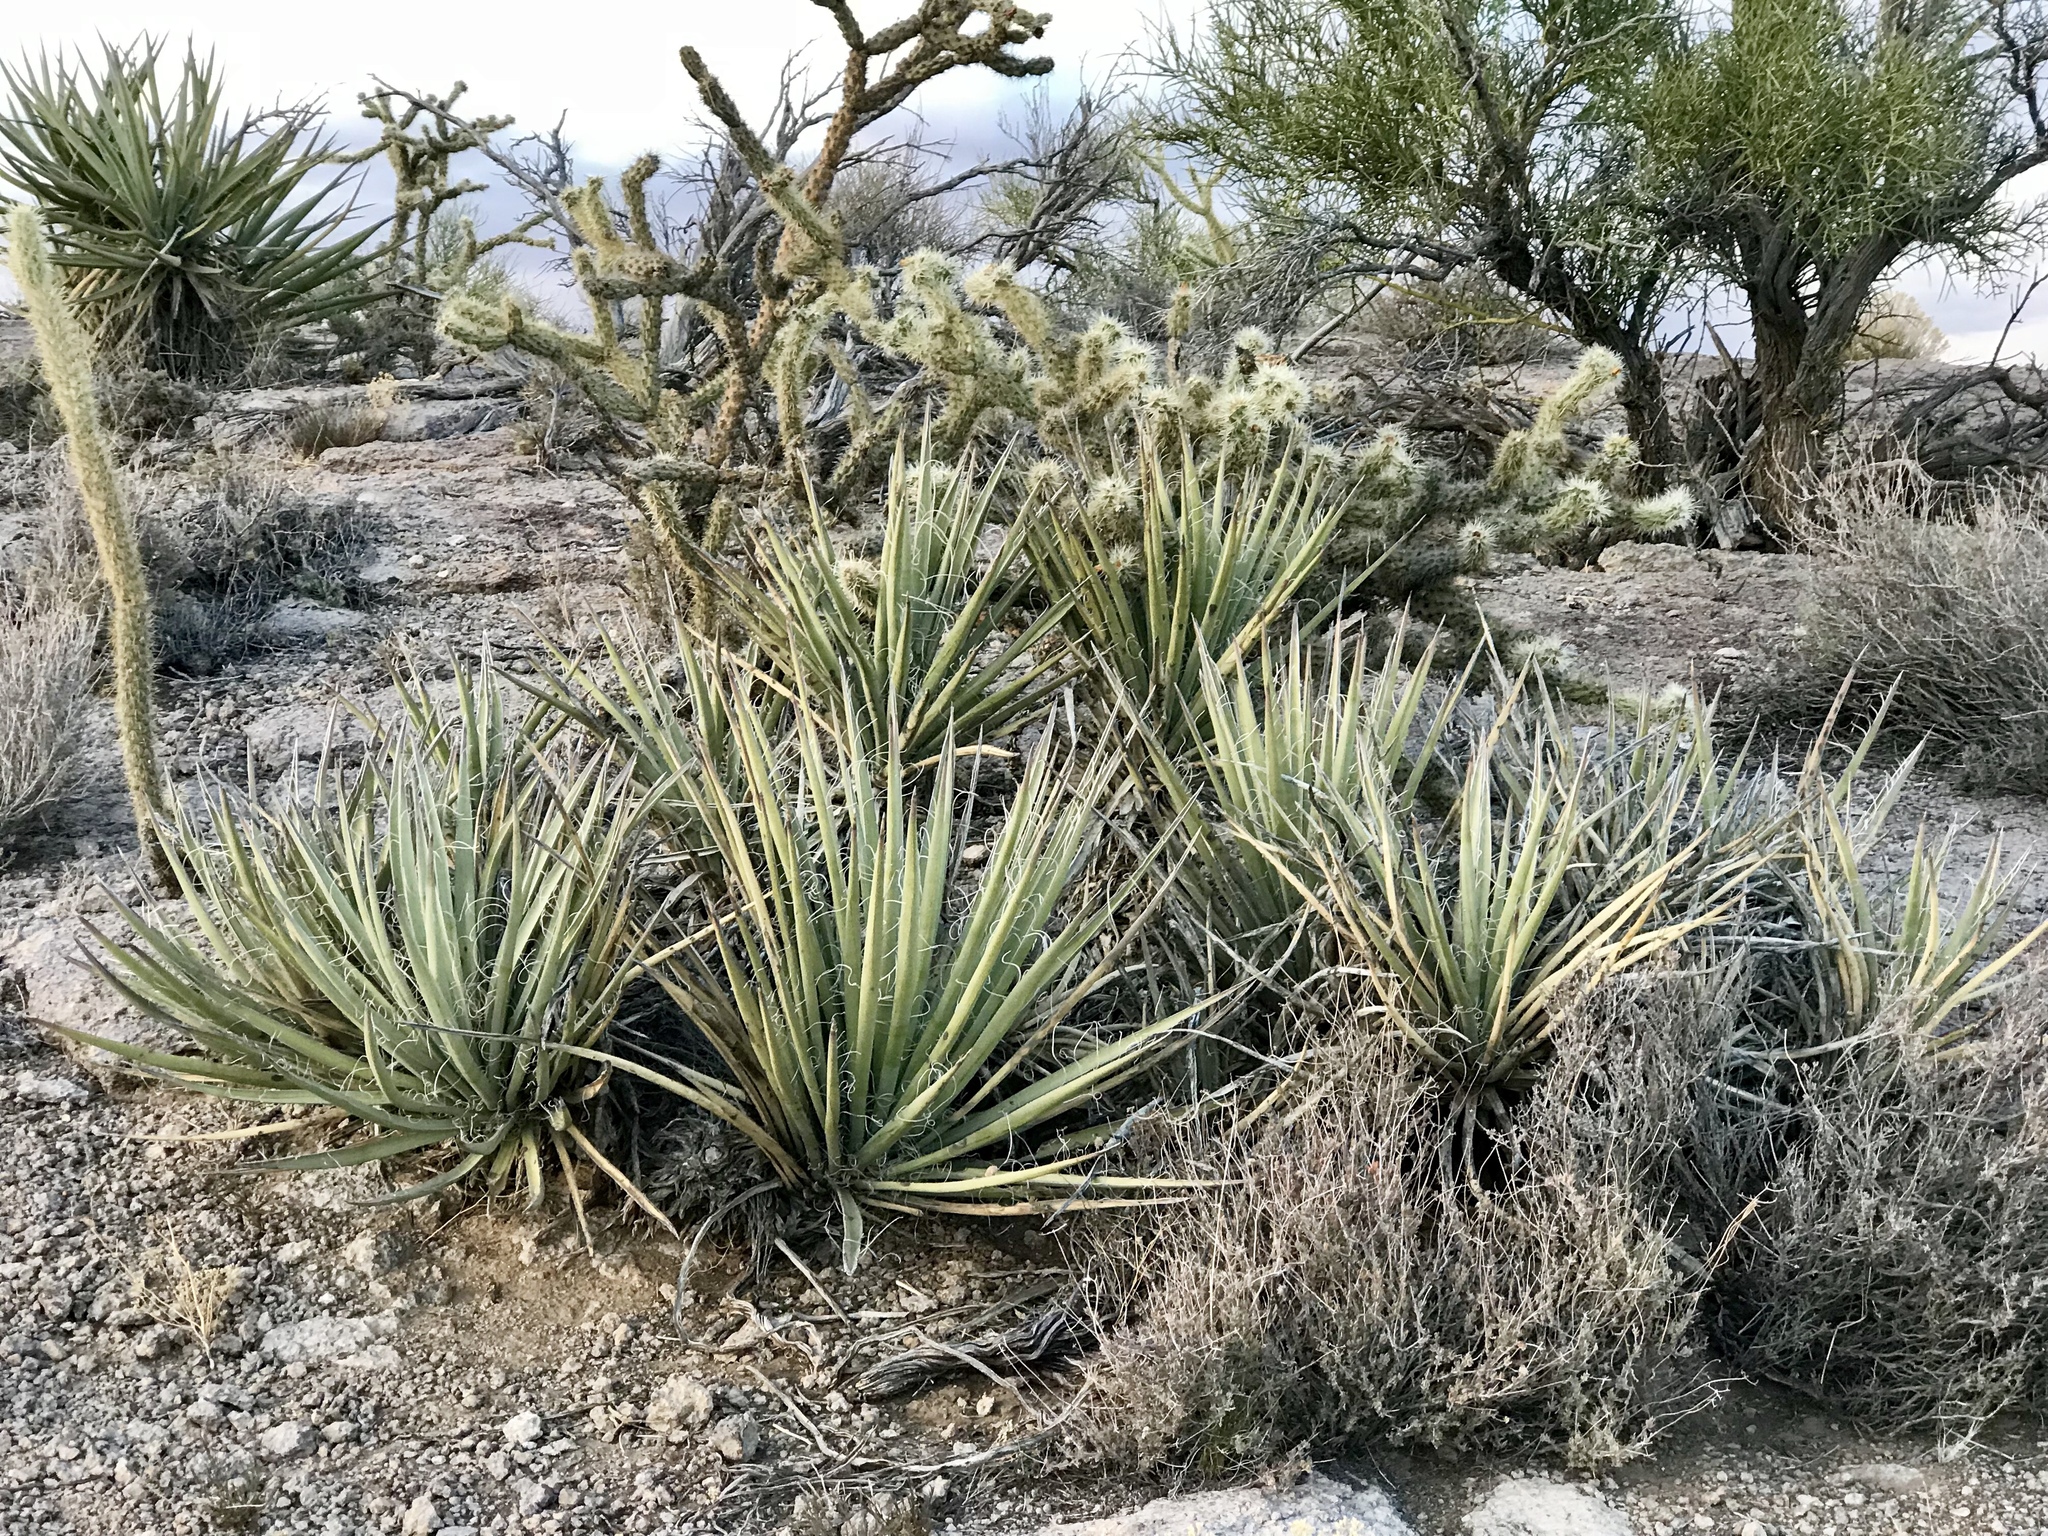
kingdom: Plantae
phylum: Tracheophyta
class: Liliopsida
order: Asparagales
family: Asparagaceae
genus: Yucca
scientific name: Yucca baccata
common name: Banana yucca
